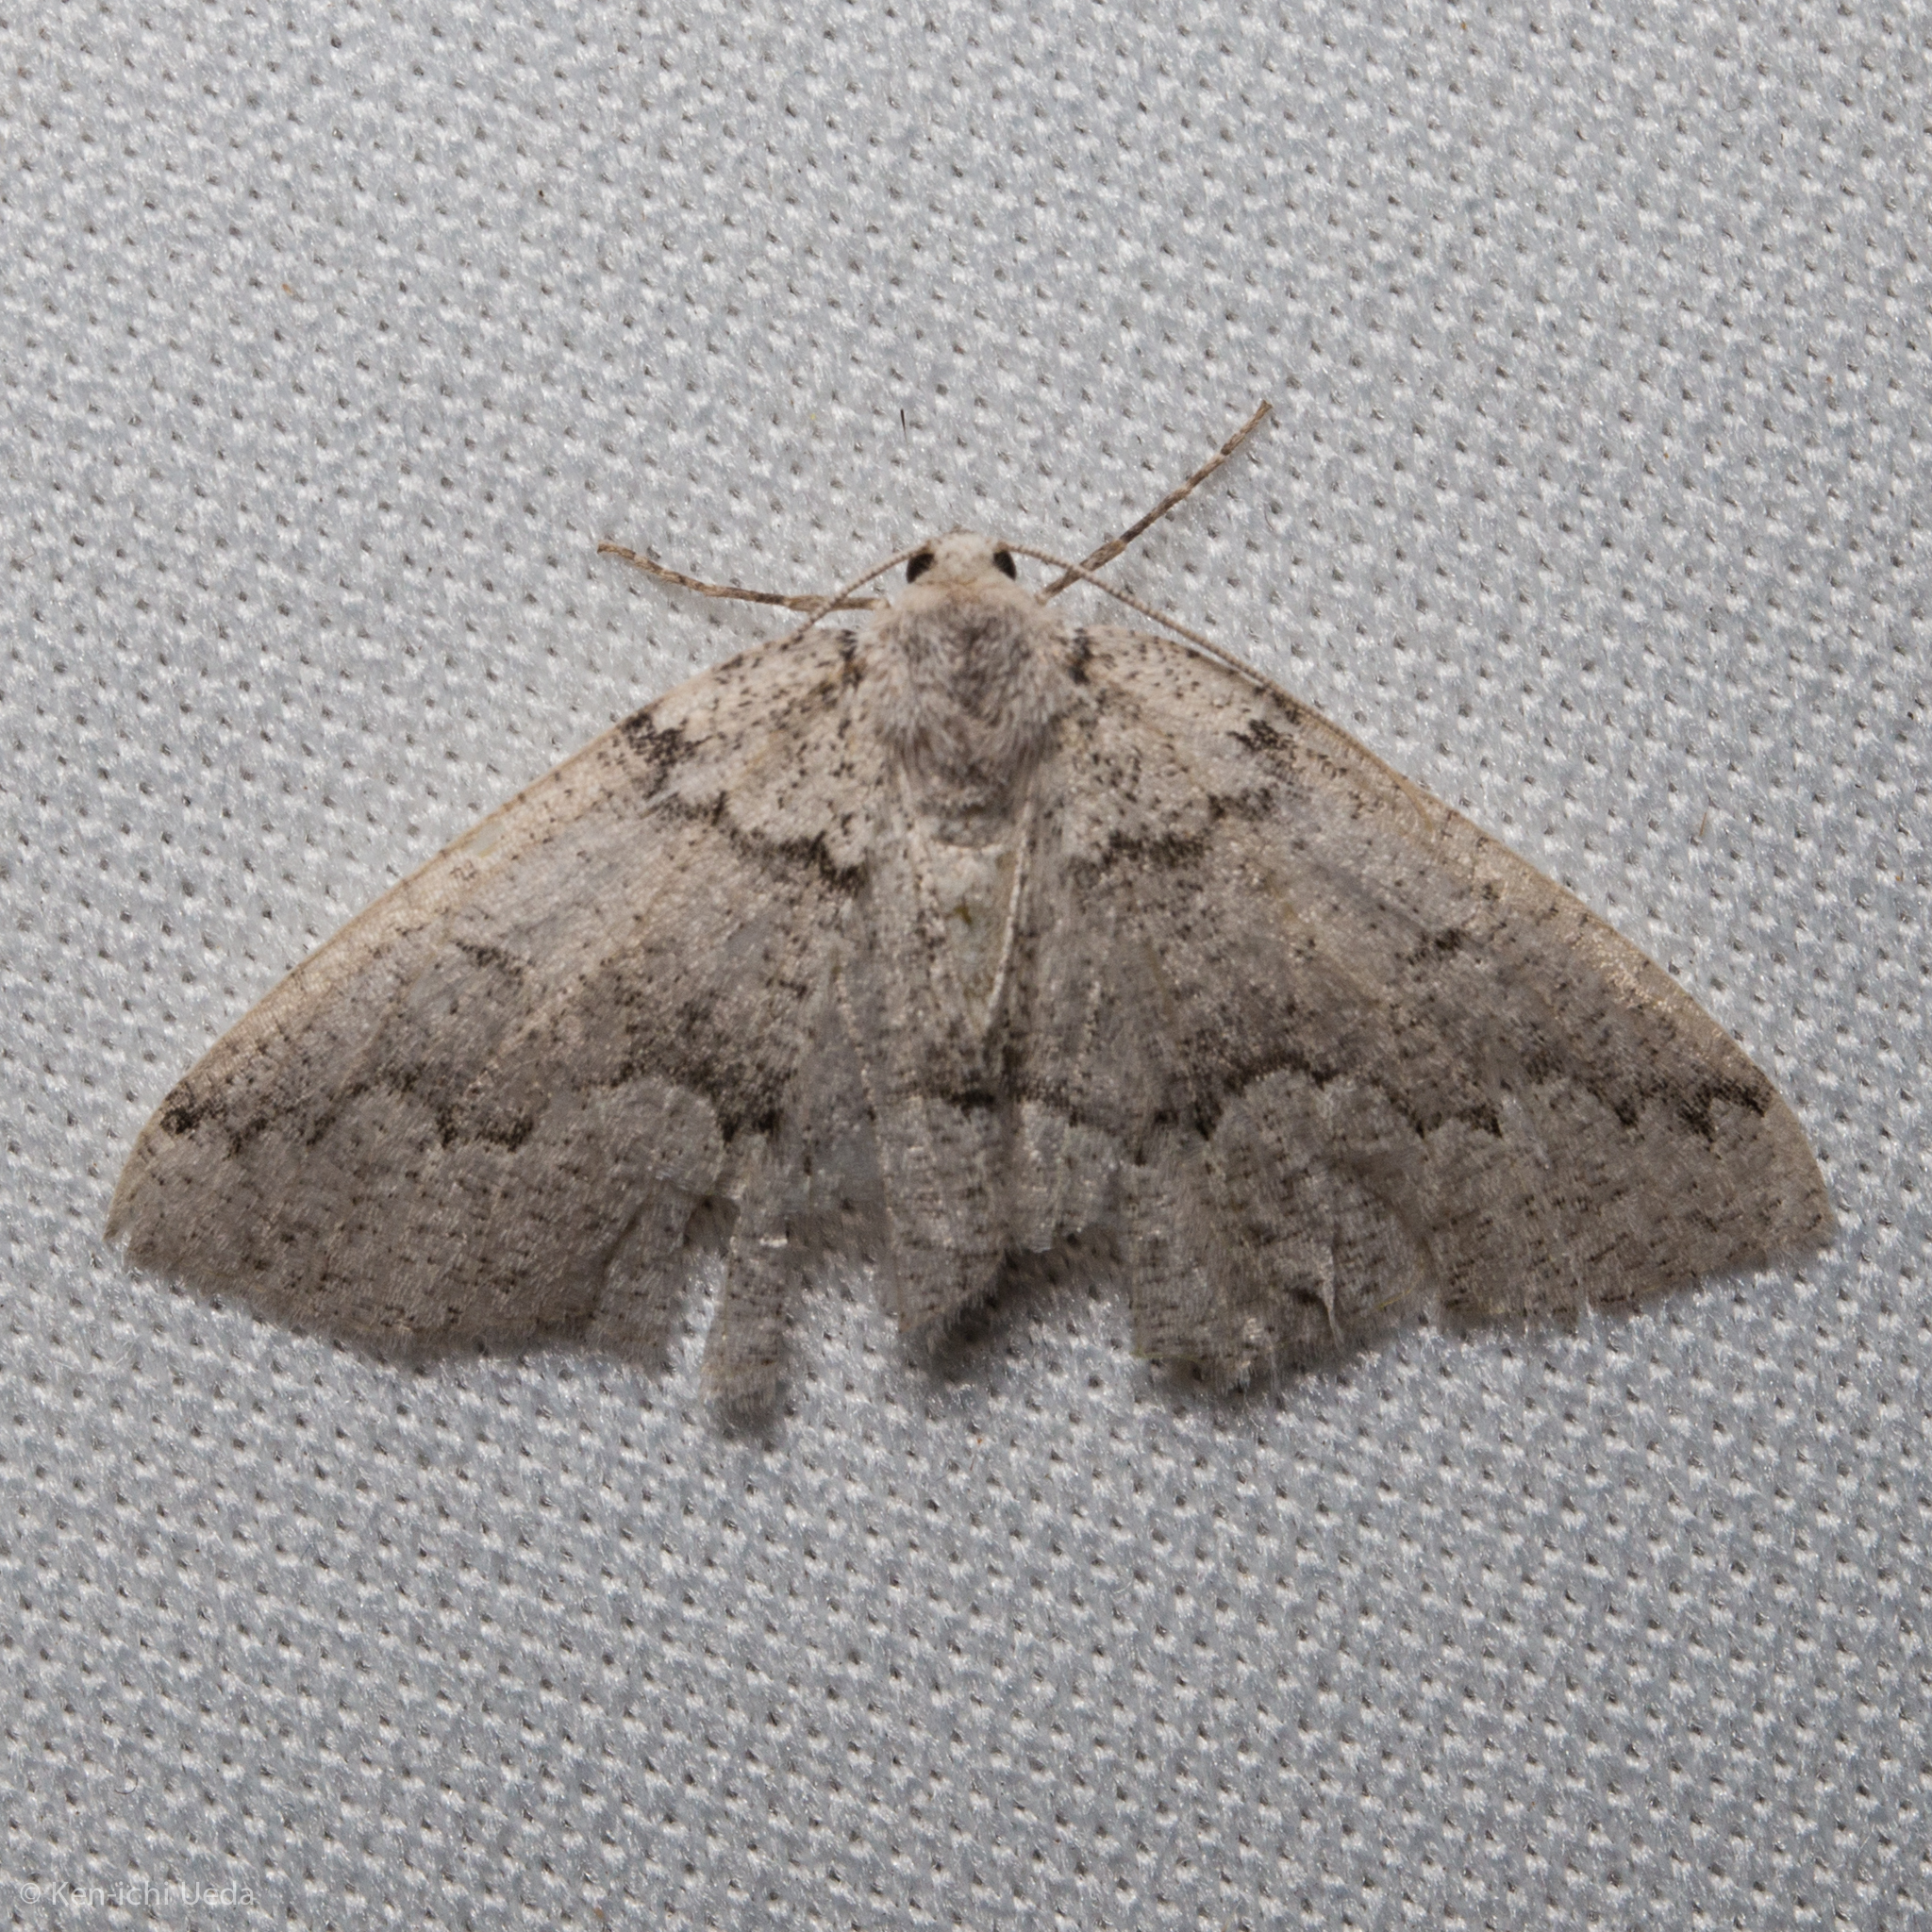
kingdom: Animalia
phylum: Arthropoda
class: Insecta
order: Lepidoptera
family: Geometridae
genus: Sabulodes
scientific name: Sabulodes
